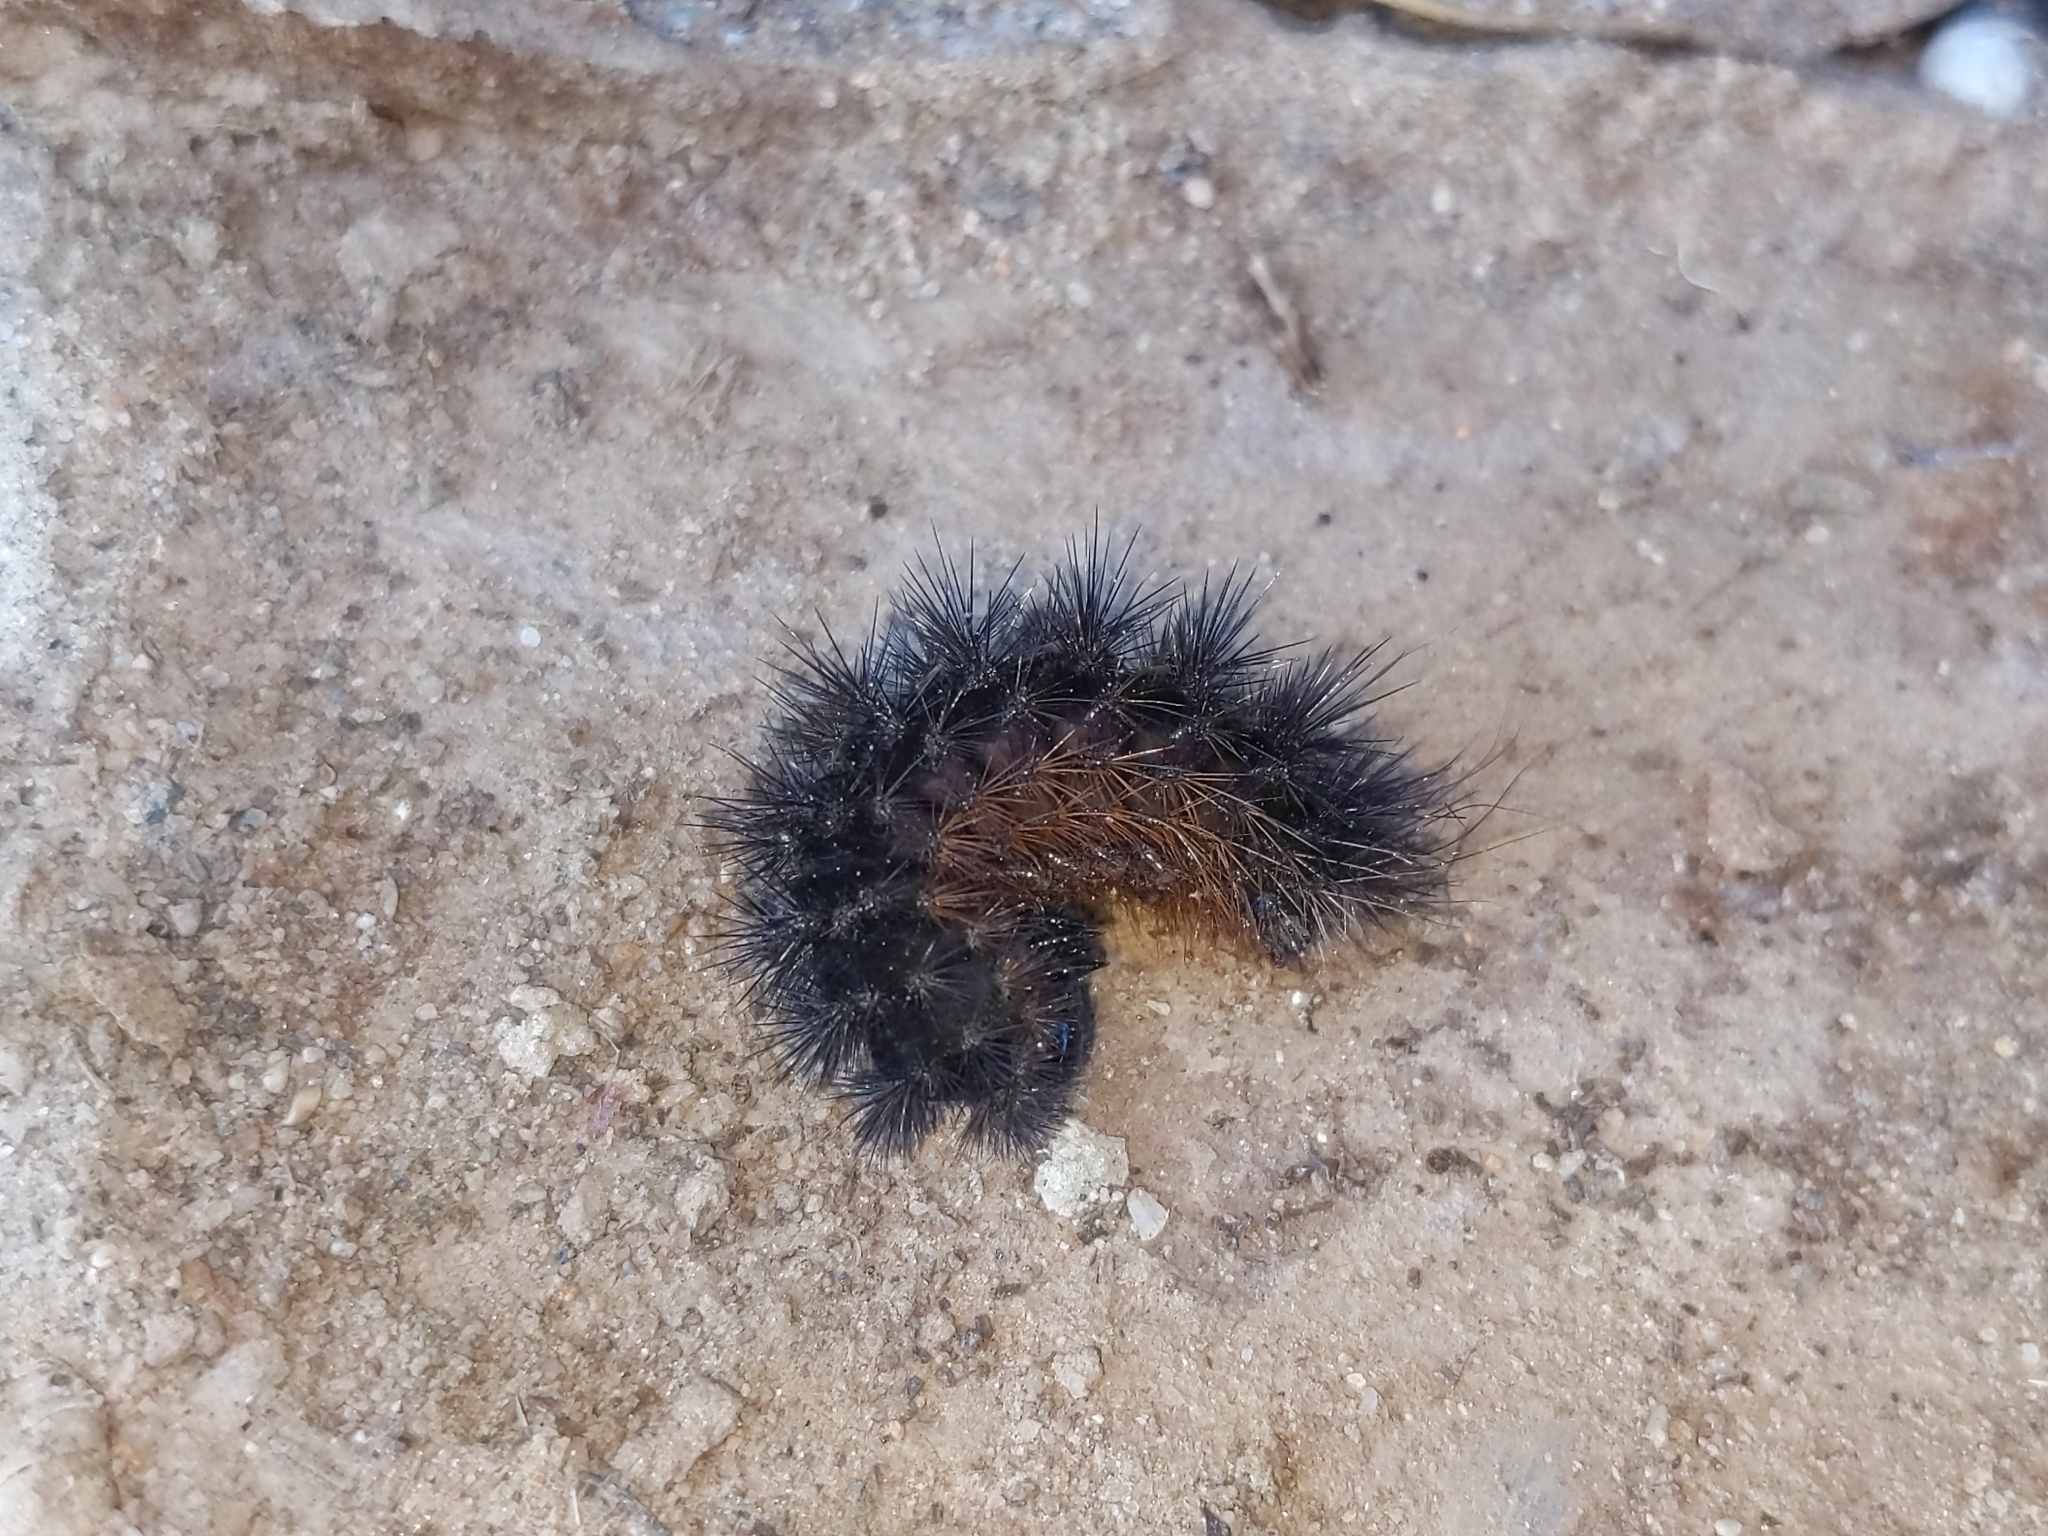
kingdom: Animalia
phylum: Arthropoda
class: Insecta
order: Lepidoptera
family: Erebidae
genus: Arachnis
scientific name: Arachnis picta
